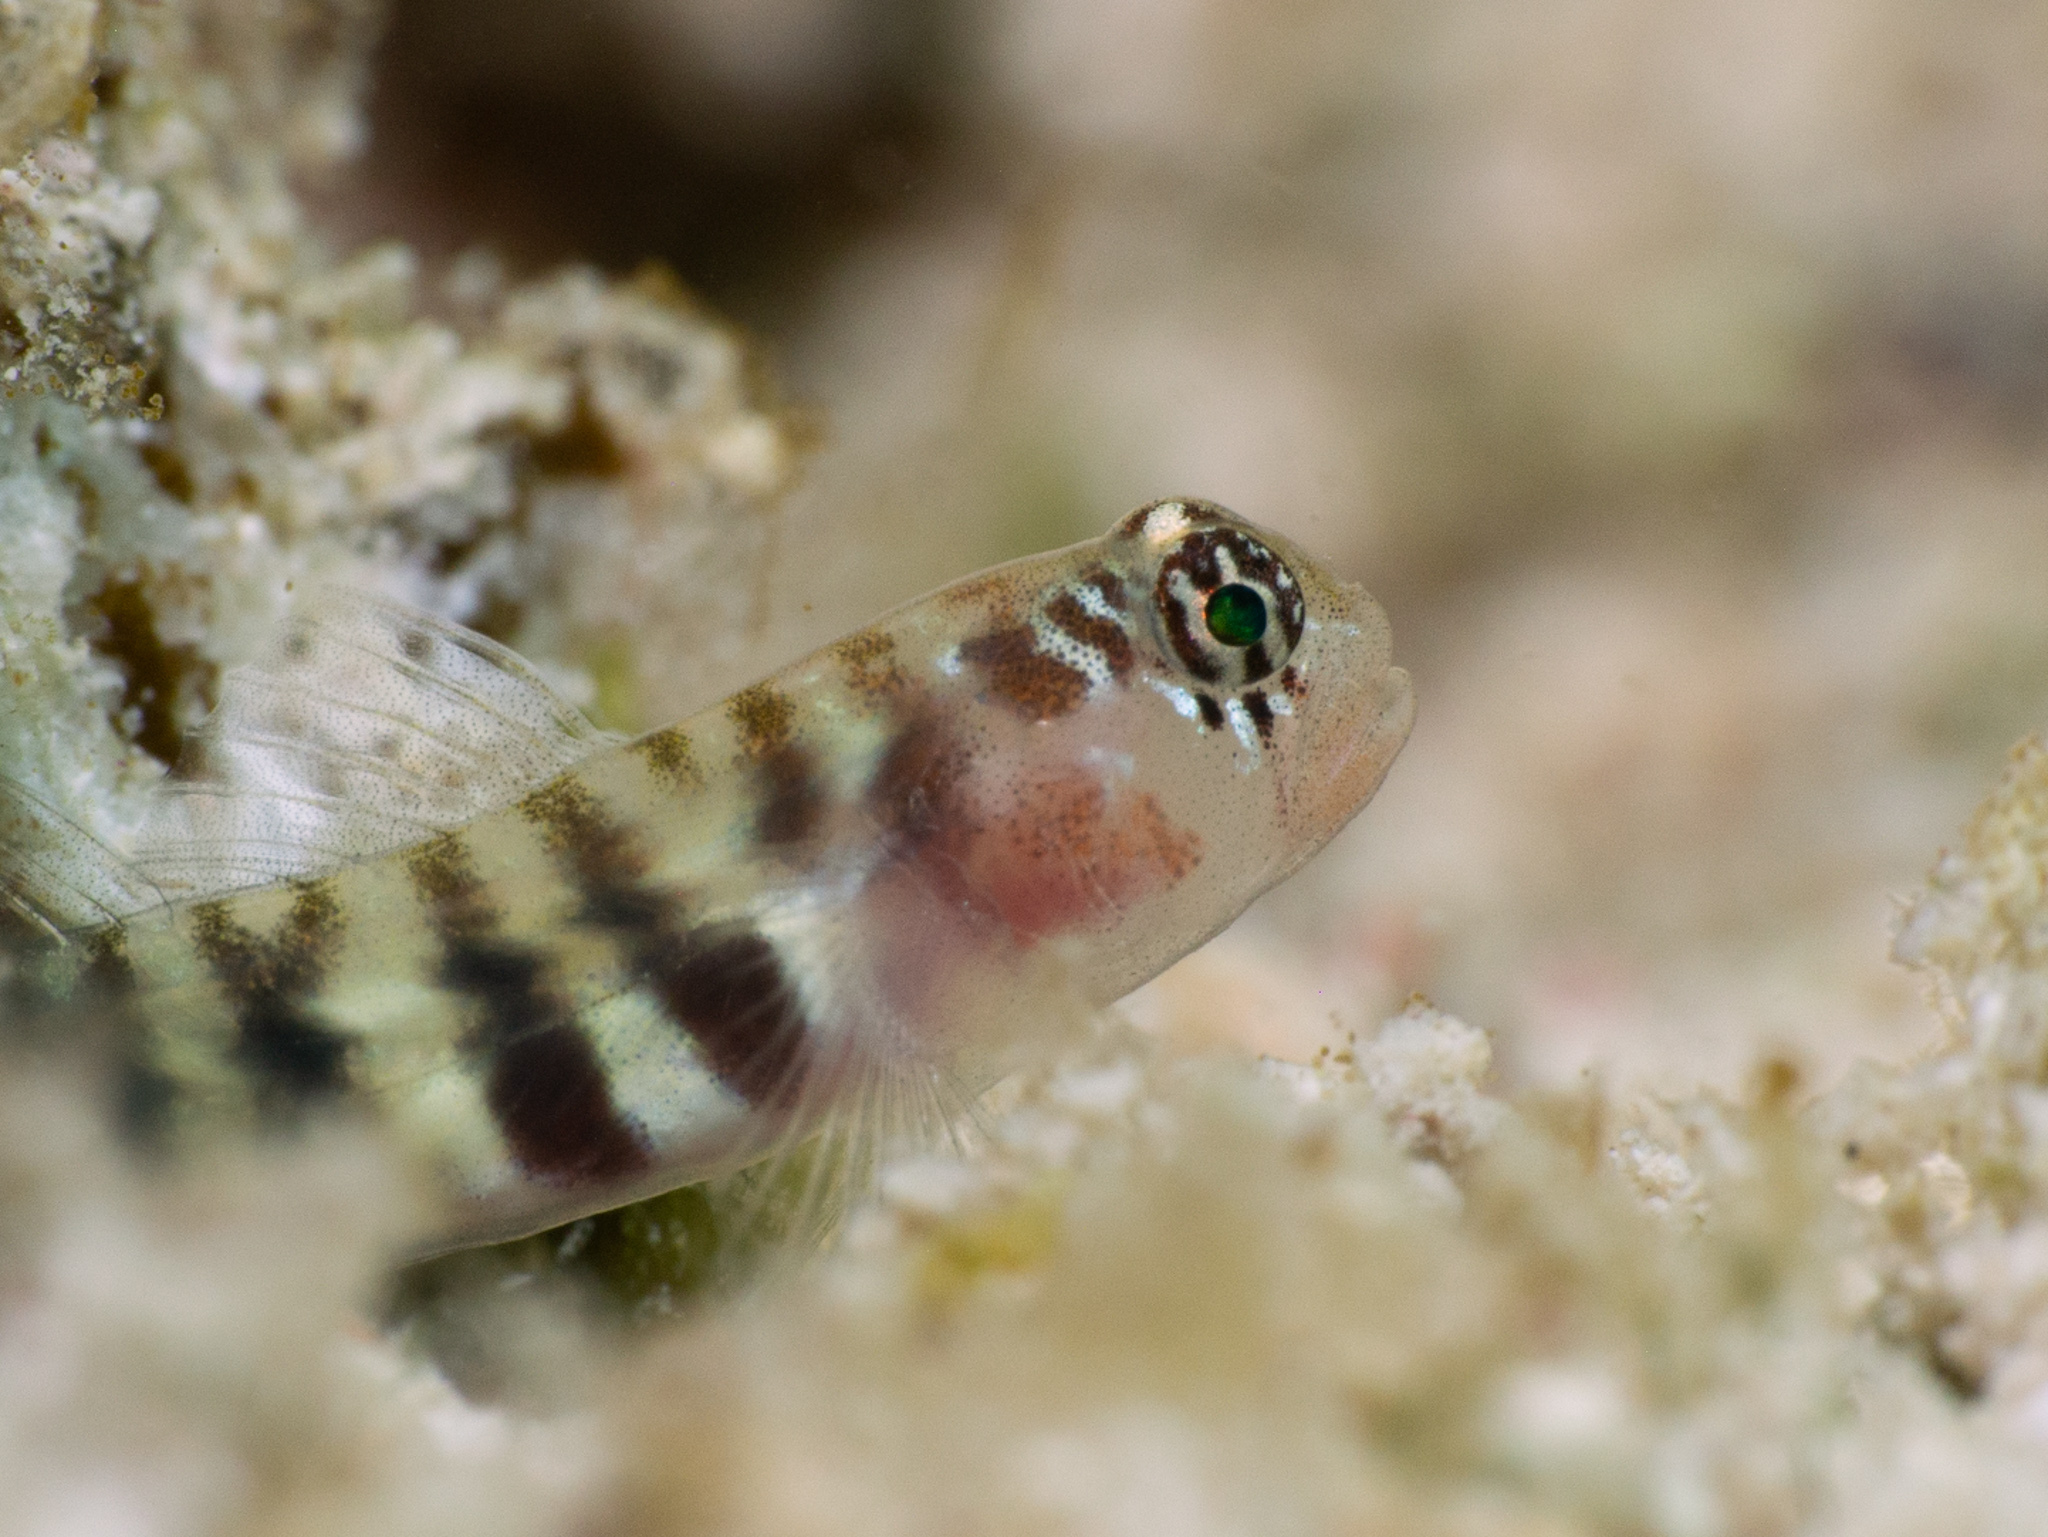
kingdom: Animalia
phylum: Chordata
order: Perciformes
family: Gobiidae
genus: Tigrigobius
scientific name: Tigrigobius pallens
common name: Semiscaled goby
